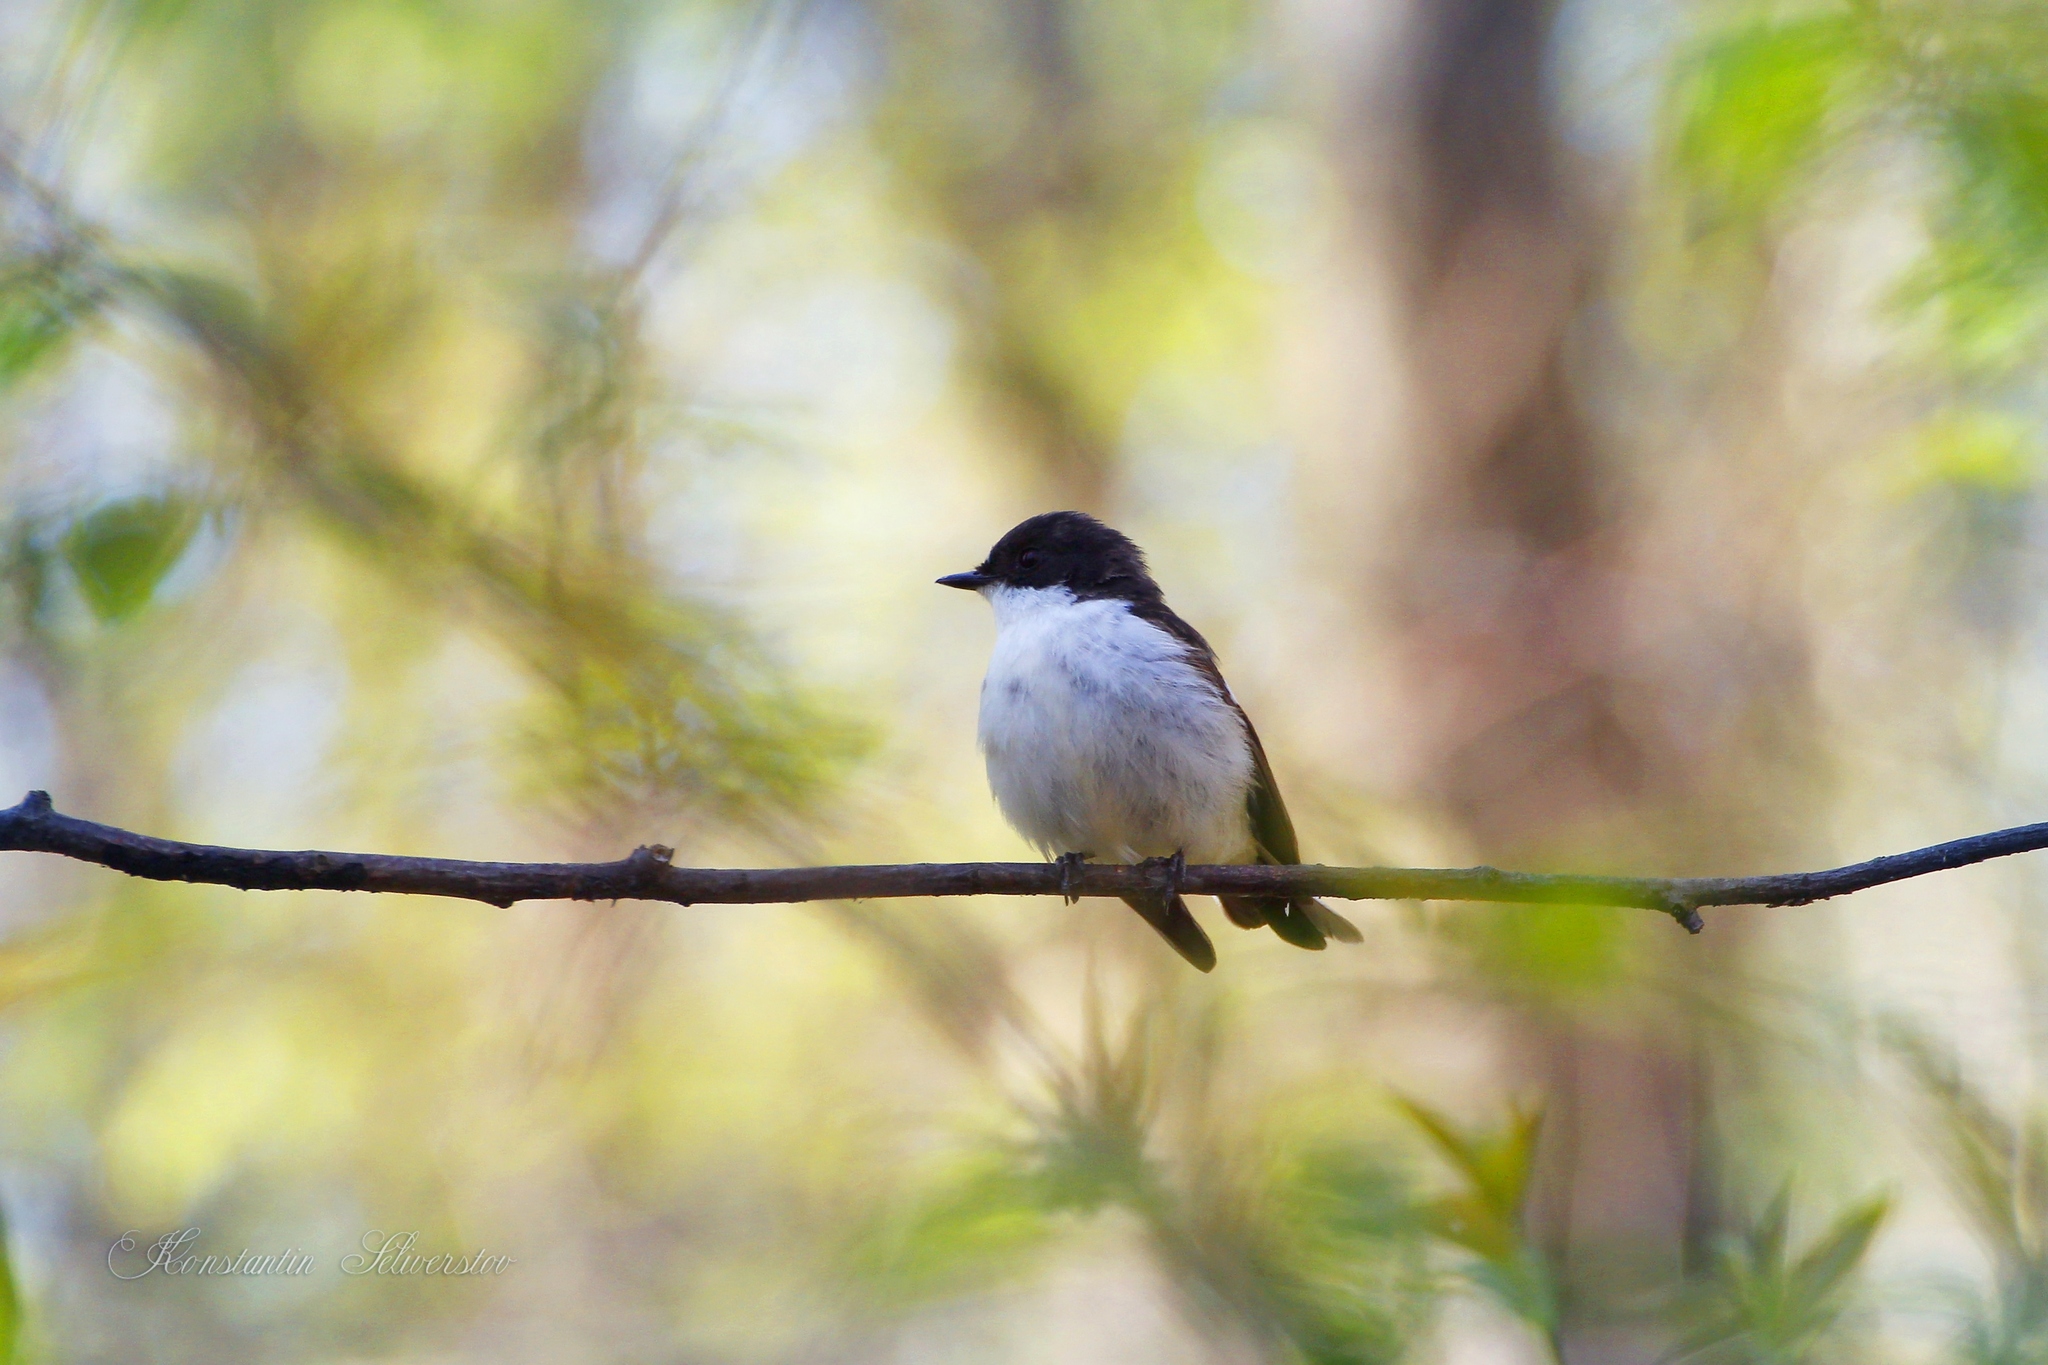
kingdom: Animalia
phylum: Chordata
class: Aves
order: Passeriformes
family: Muscicapidae
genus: Ficedula
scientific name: Ficedula hypoleuca
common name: European pied flycatcher
